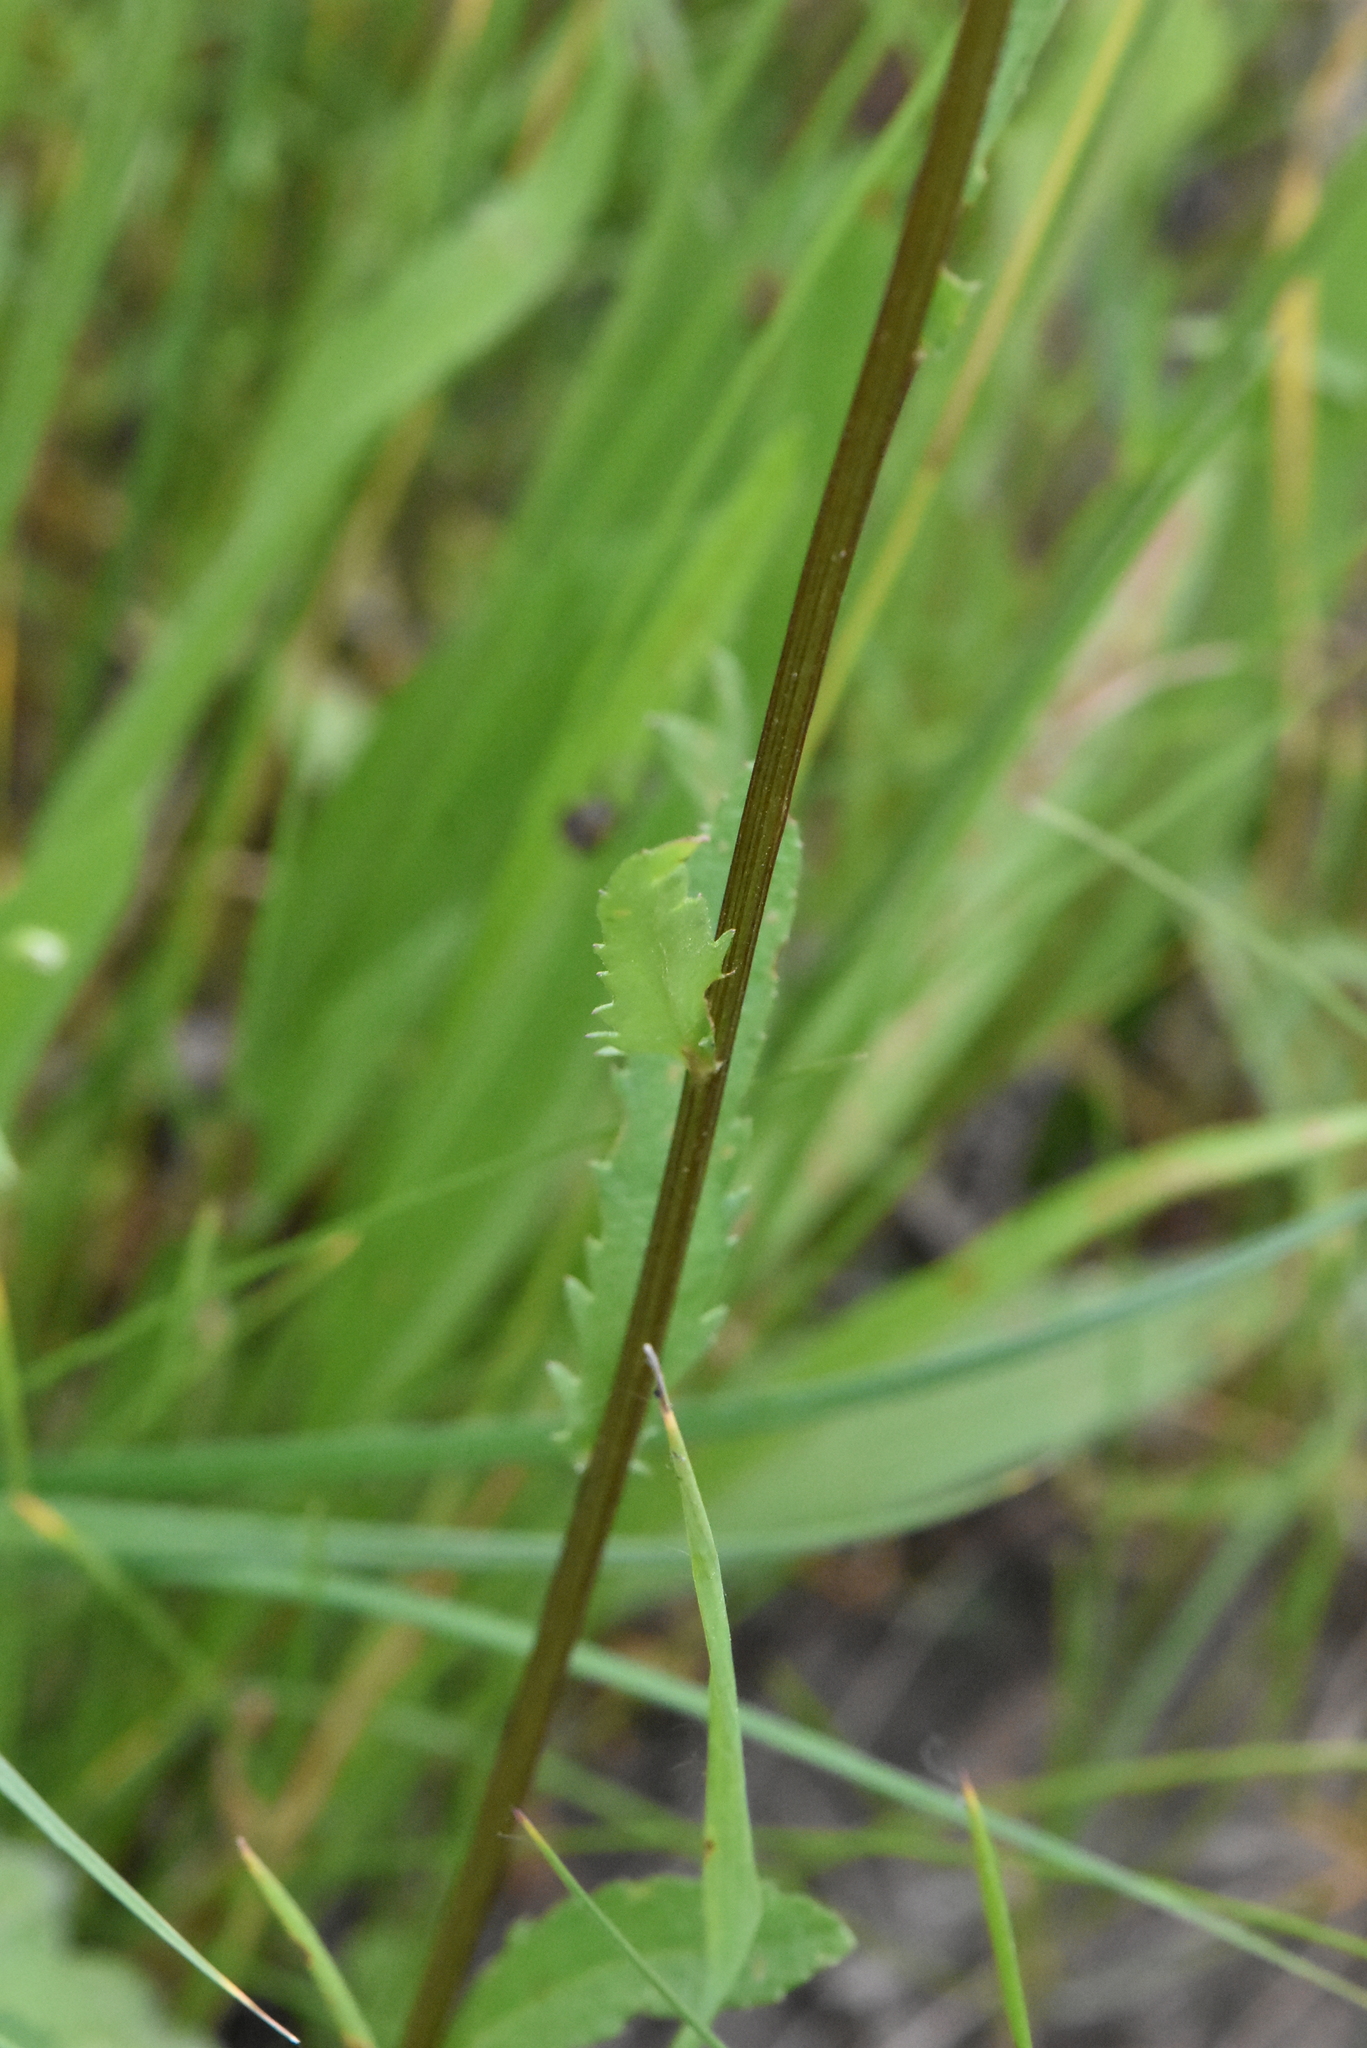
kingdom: Plantae
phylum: Tracheophyta
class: Magnoliopsida
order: Asterales
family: Asteraceae
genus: Leucanthemum
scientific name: Leucanthemum vulgare
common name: Oxeye daisy
